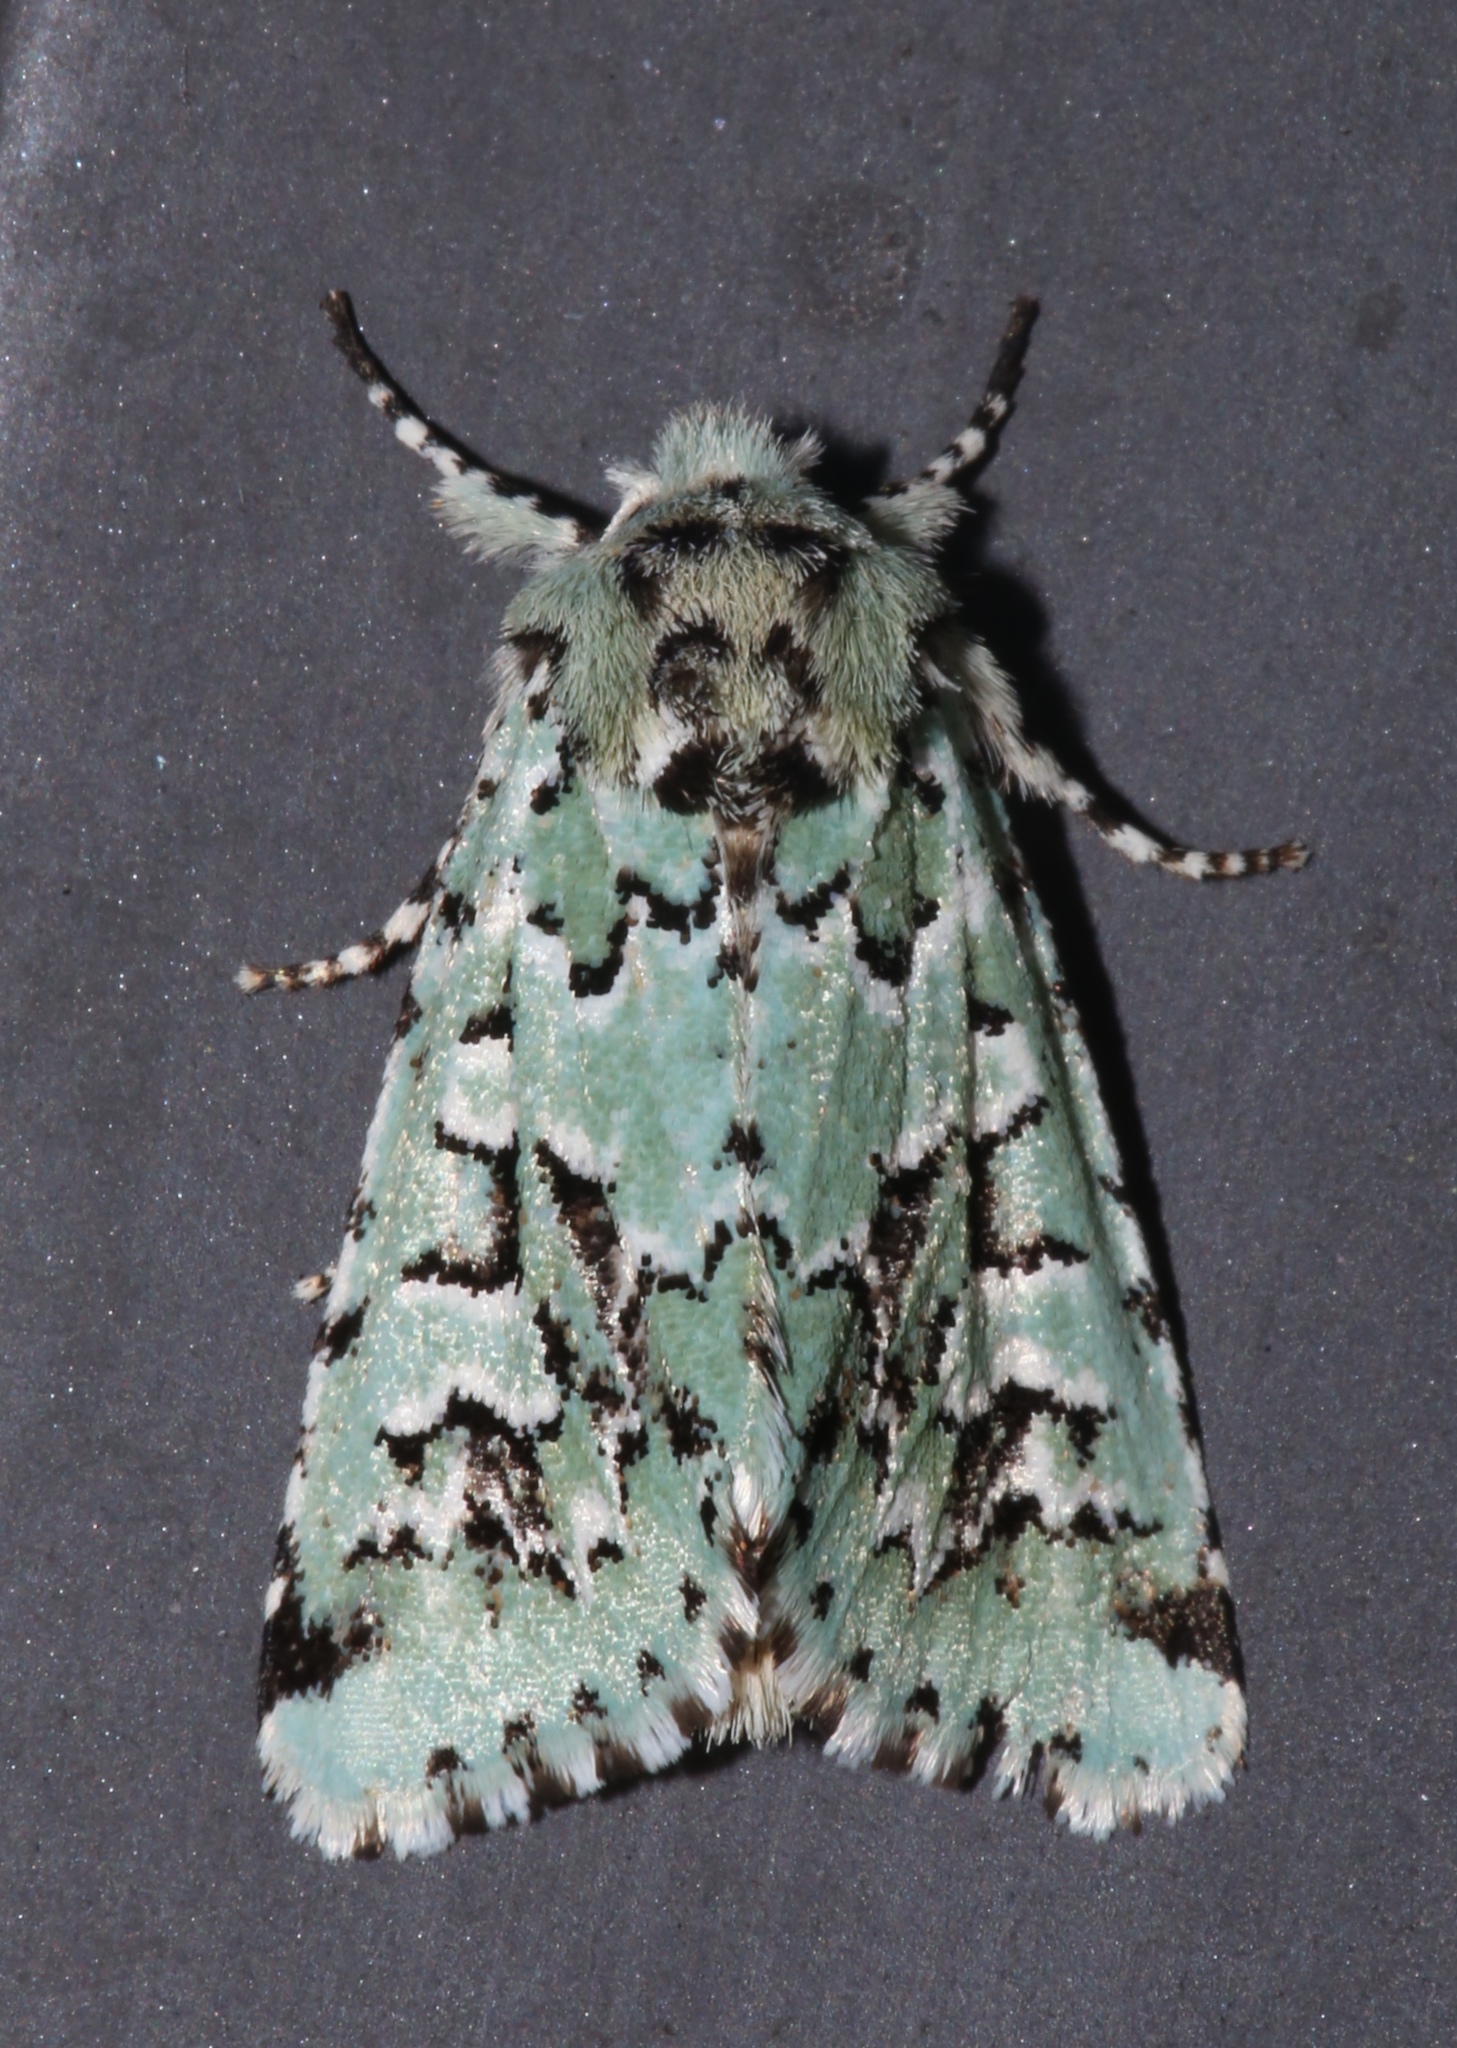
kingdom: Animalia
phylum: Arthropoda
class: Insecta
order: Lepidoptera
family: Noctuidae
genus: Feralia
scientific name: Feralia comstocki
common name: Comstock's sallow
